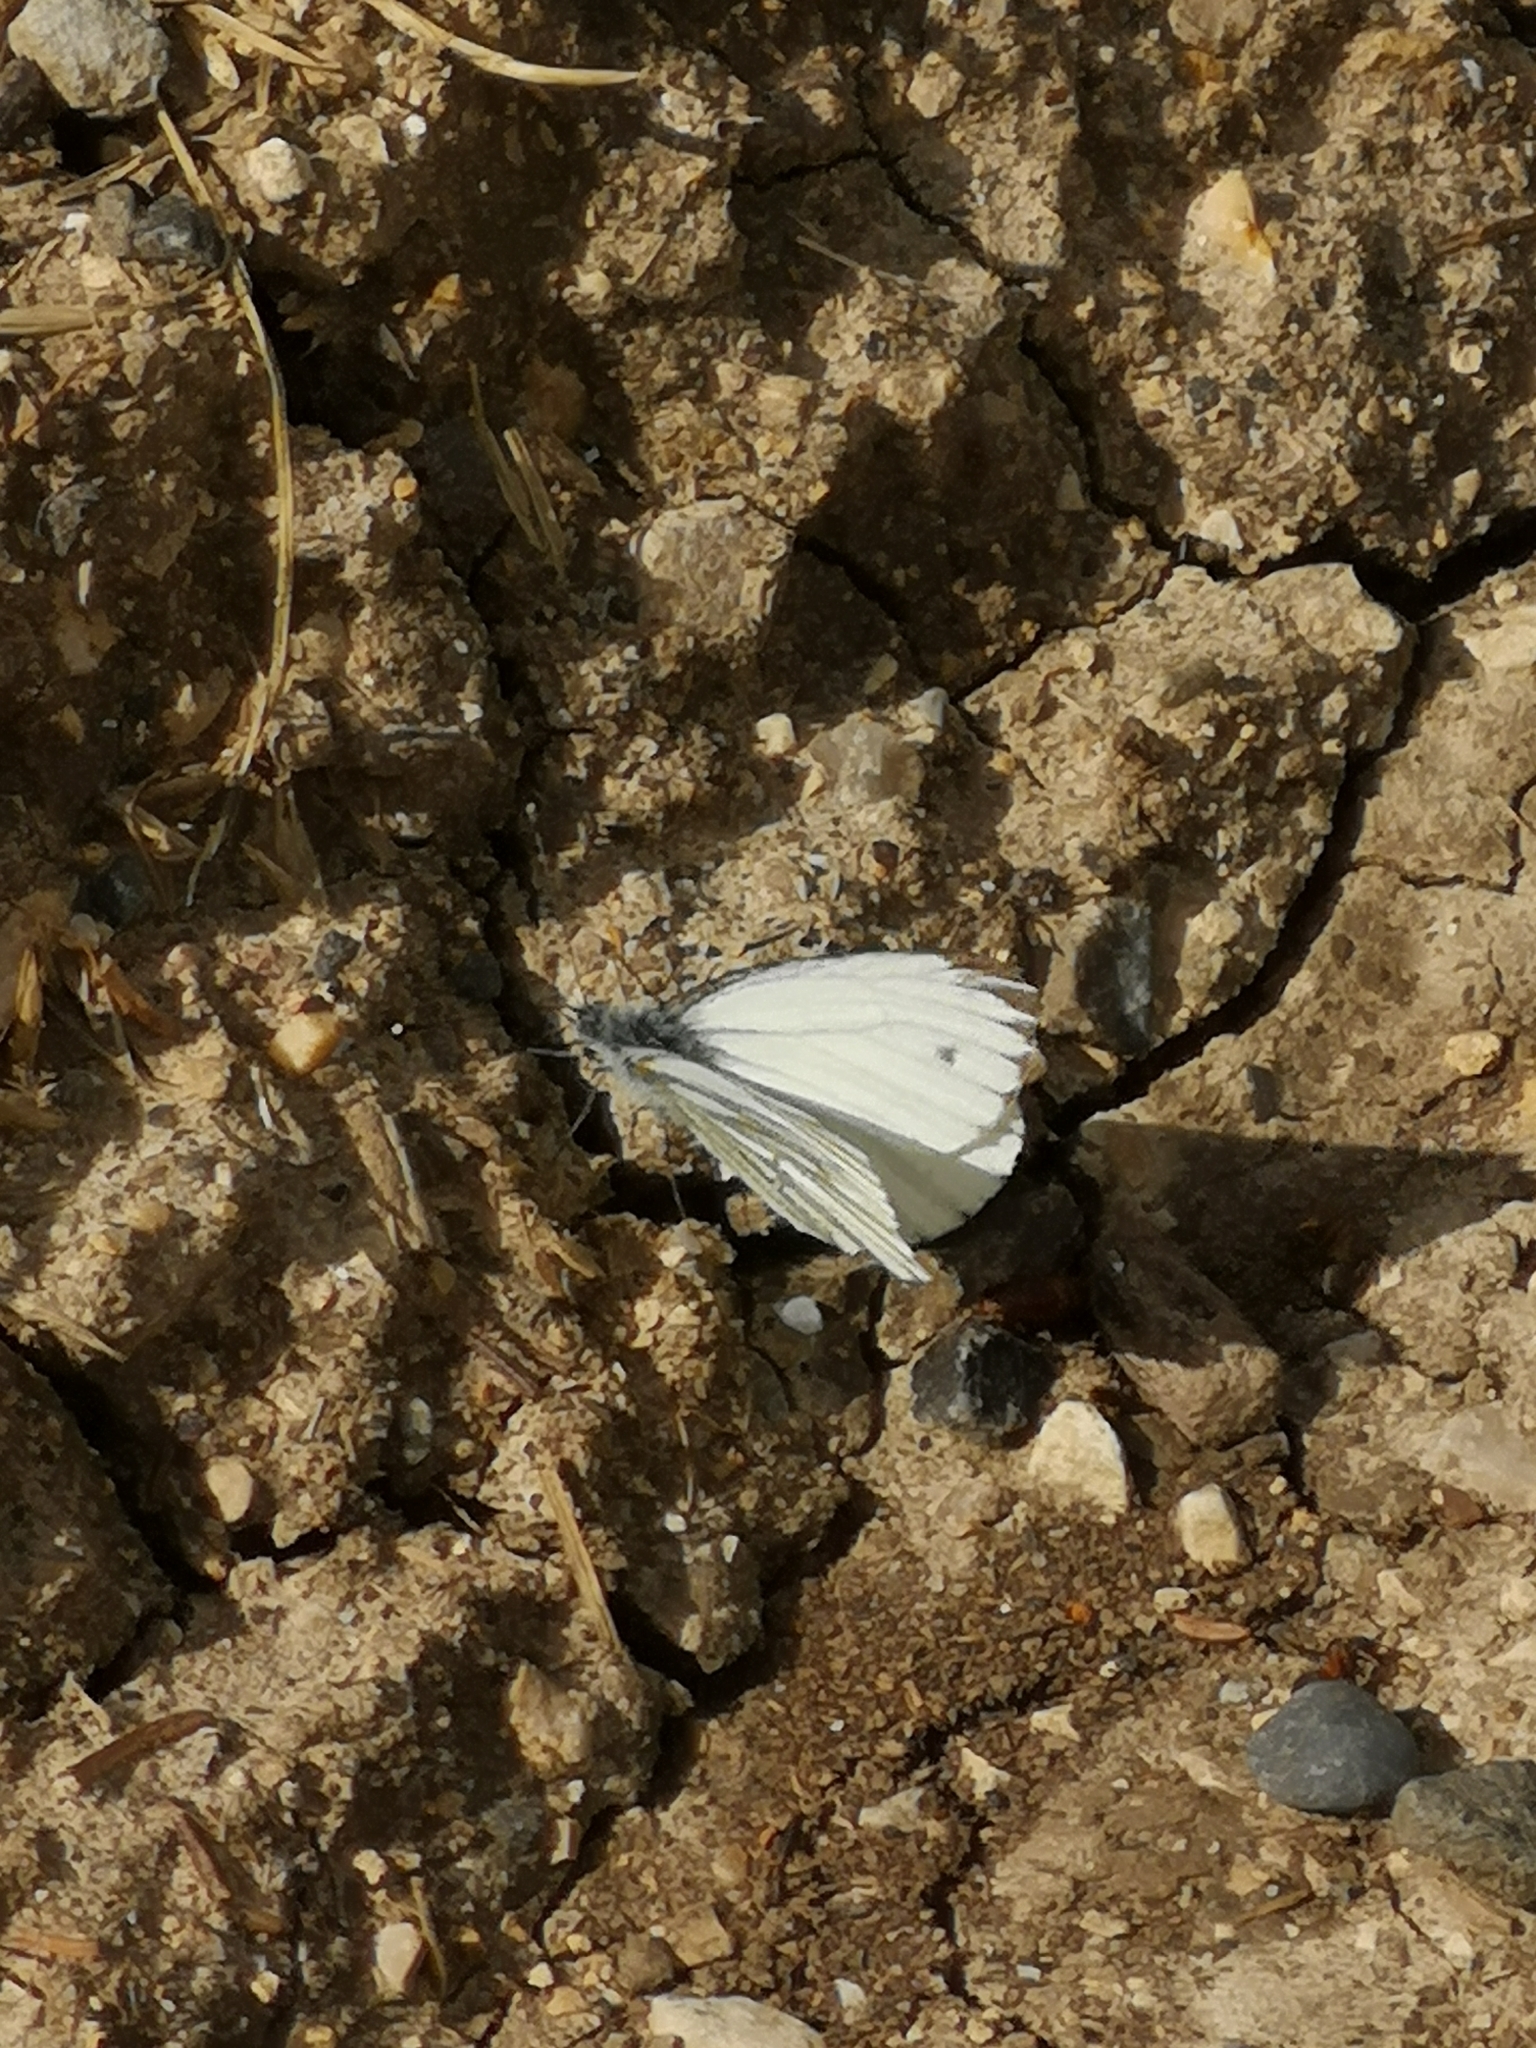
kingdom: Animalia
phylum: Arthropoda
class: Insecta
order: Lepidoptera
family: Pieridae
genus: Pieris
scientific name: Pieris napi
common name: Green-veined white
